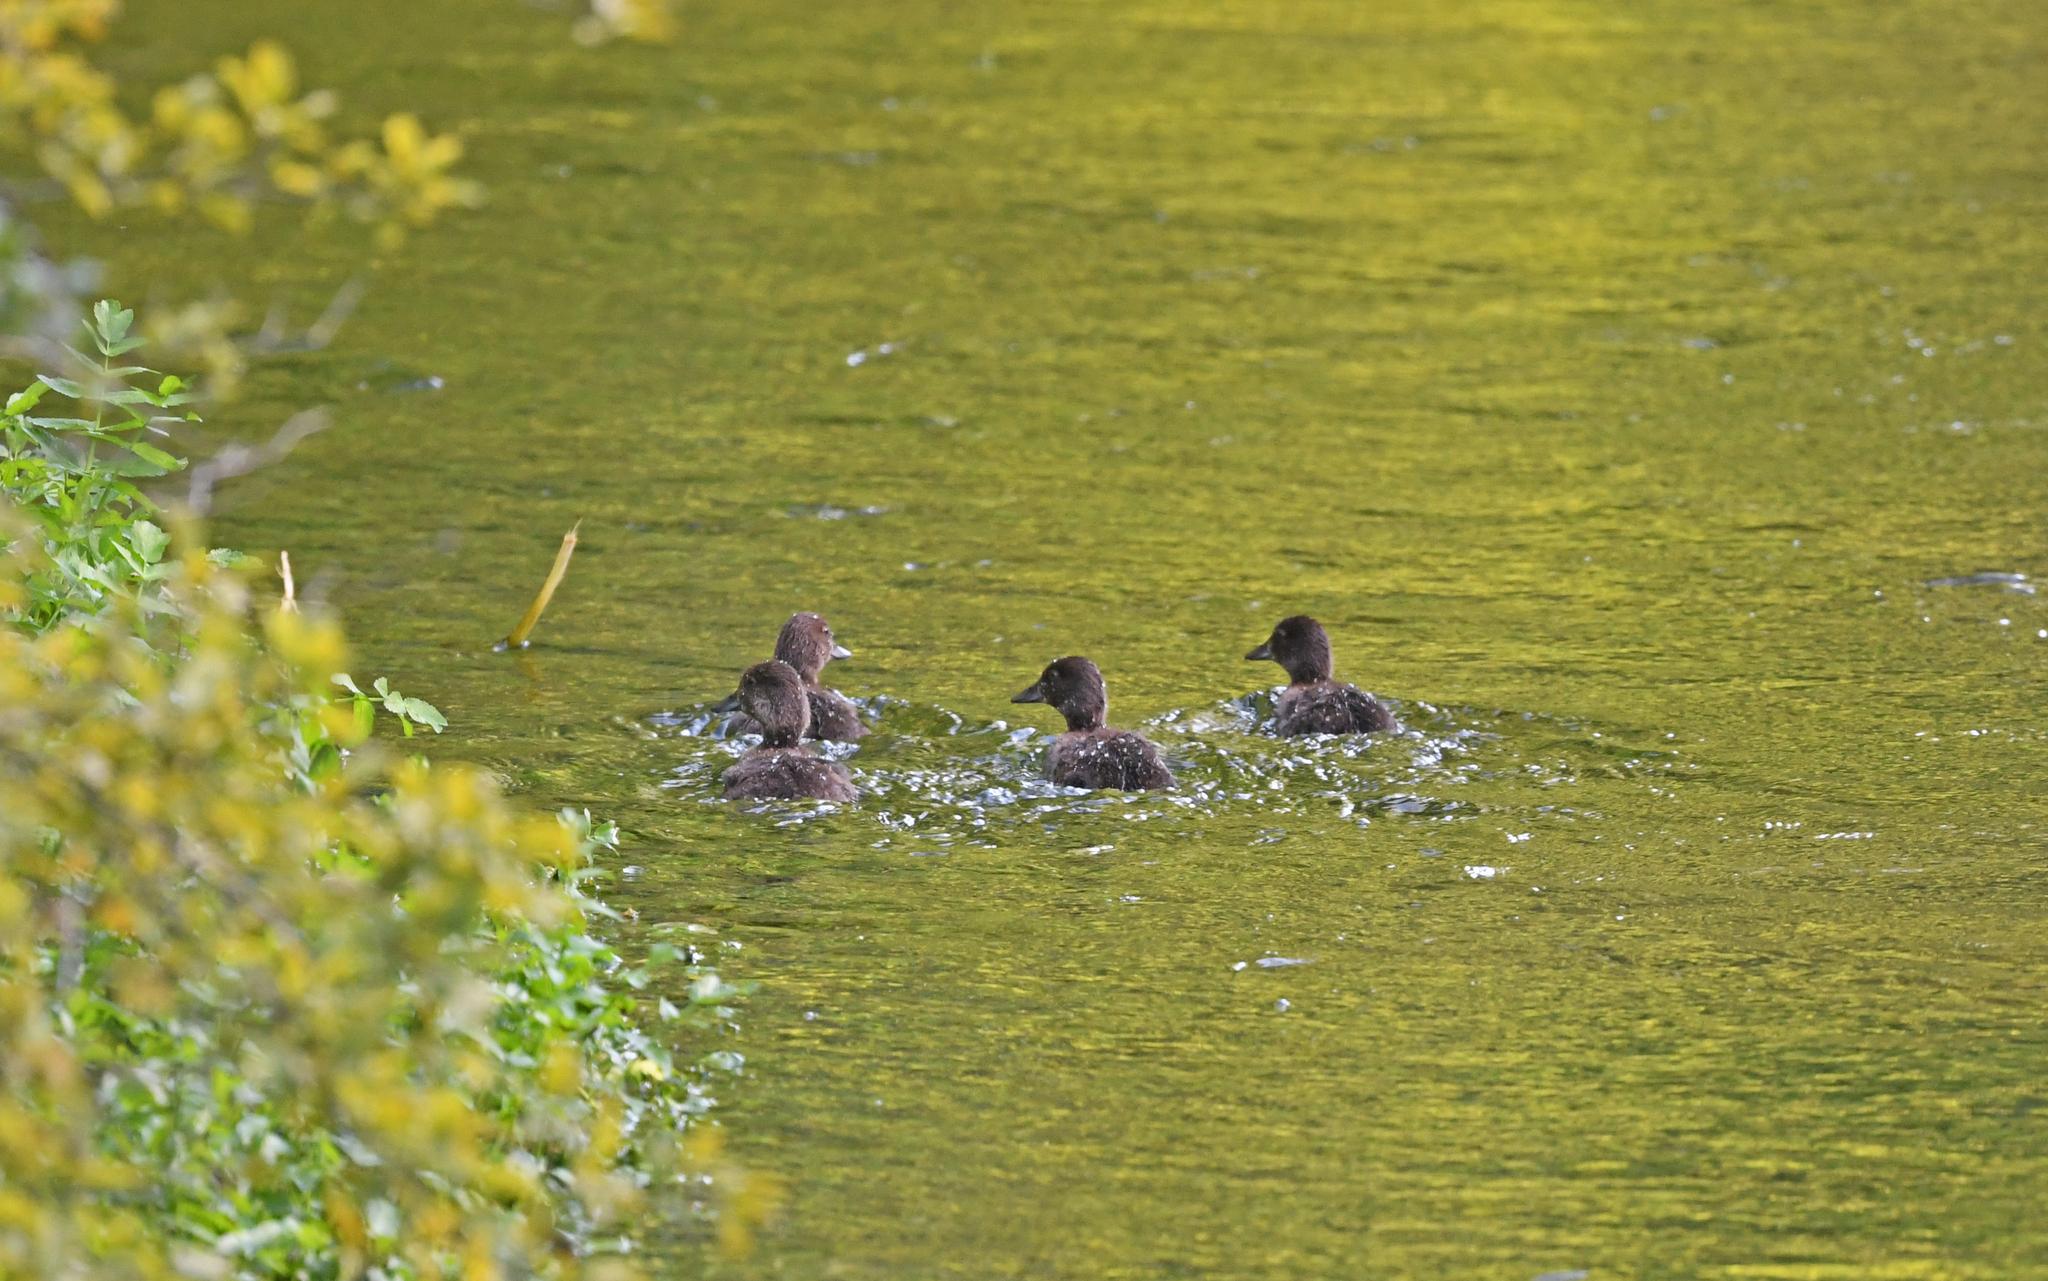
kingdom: Animalia
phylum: Chordata
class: Aves
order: Anseriformes
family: Anatidae
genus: Aythya
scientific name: Aythya fuligula
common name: Tufted duck
